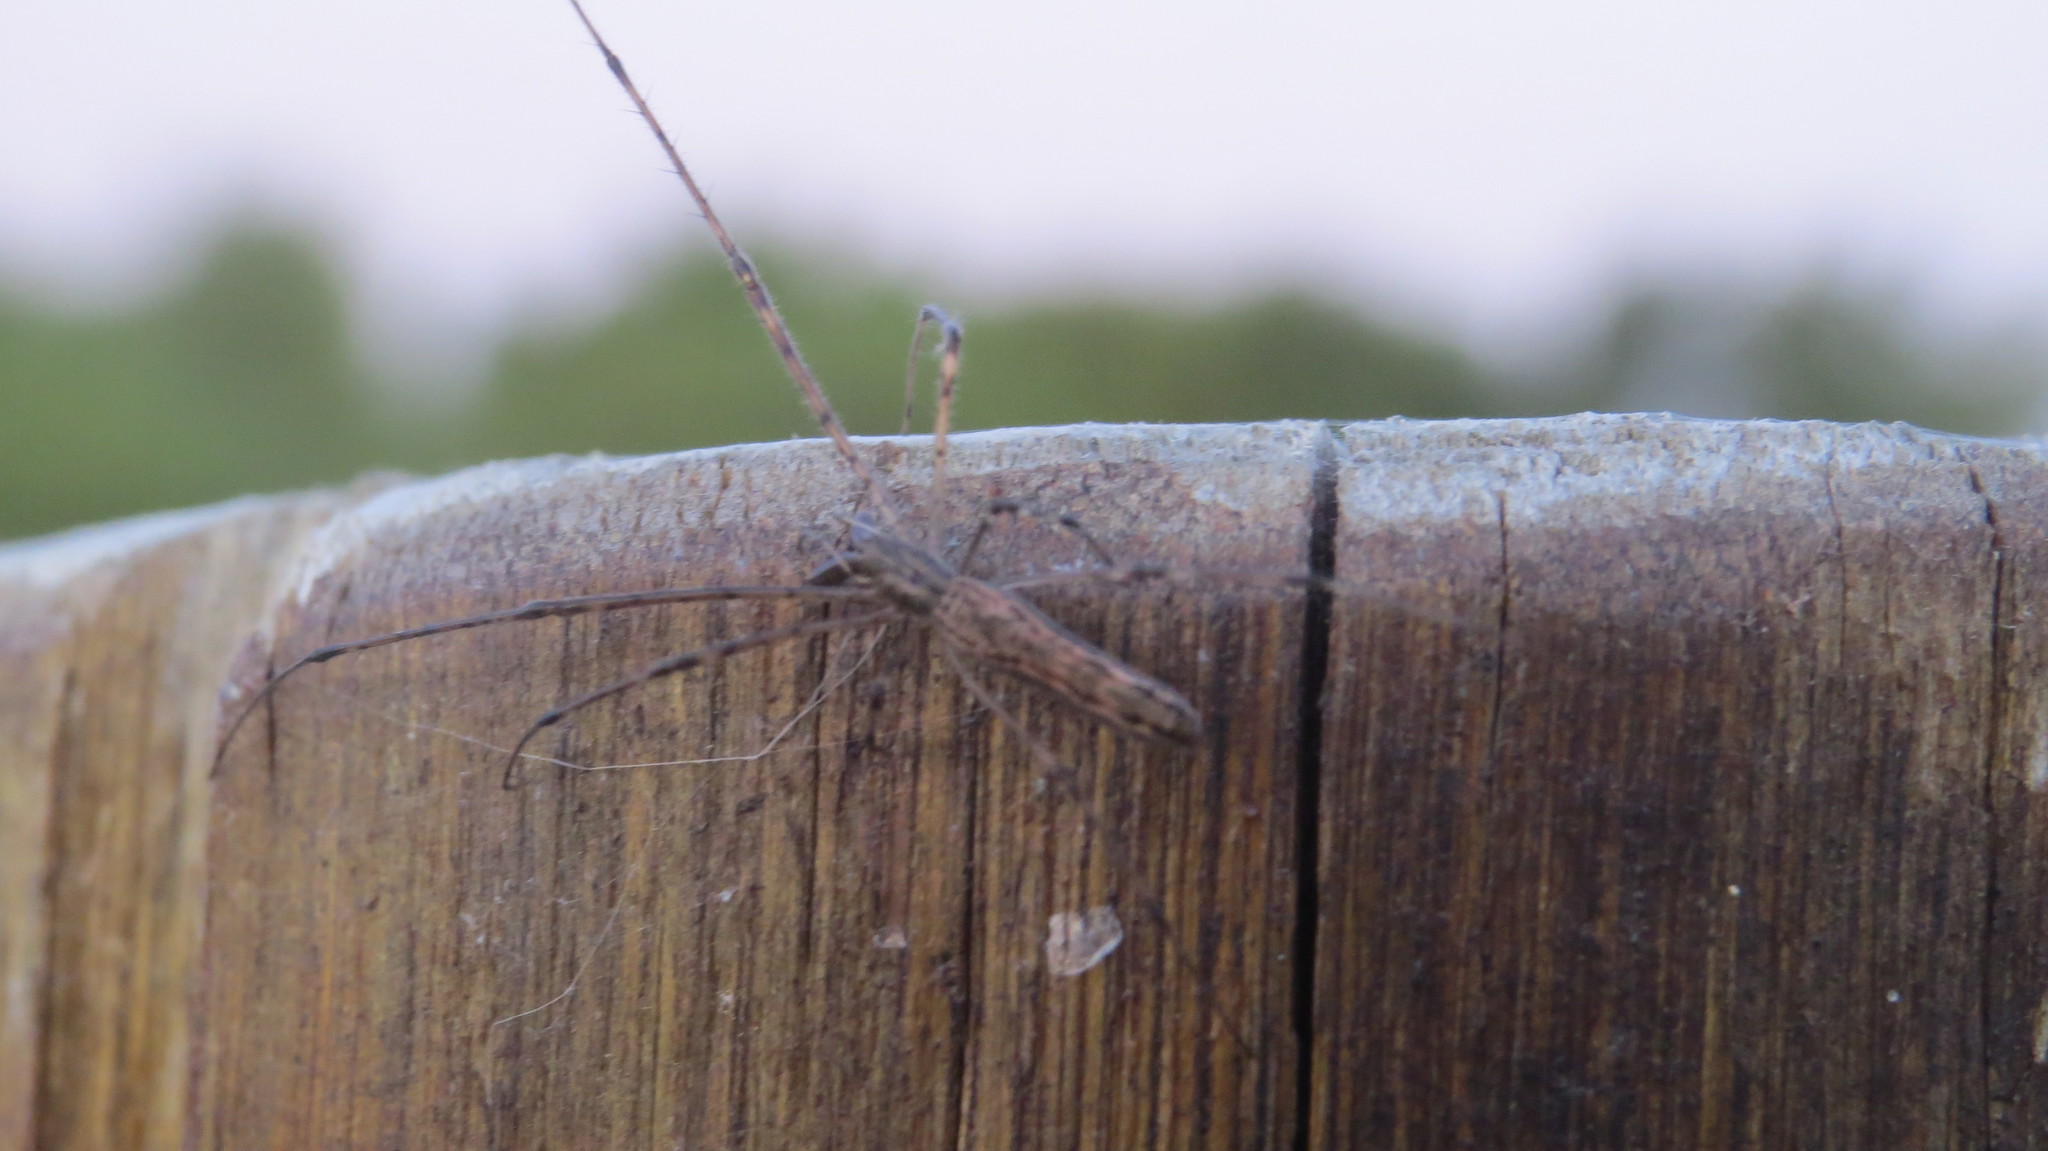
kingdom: Animalia
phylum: Arthropoda
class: Arachnida
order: Araneae
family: Tetragnathidae
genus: Tetragnatha
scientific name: Tetragnatha
